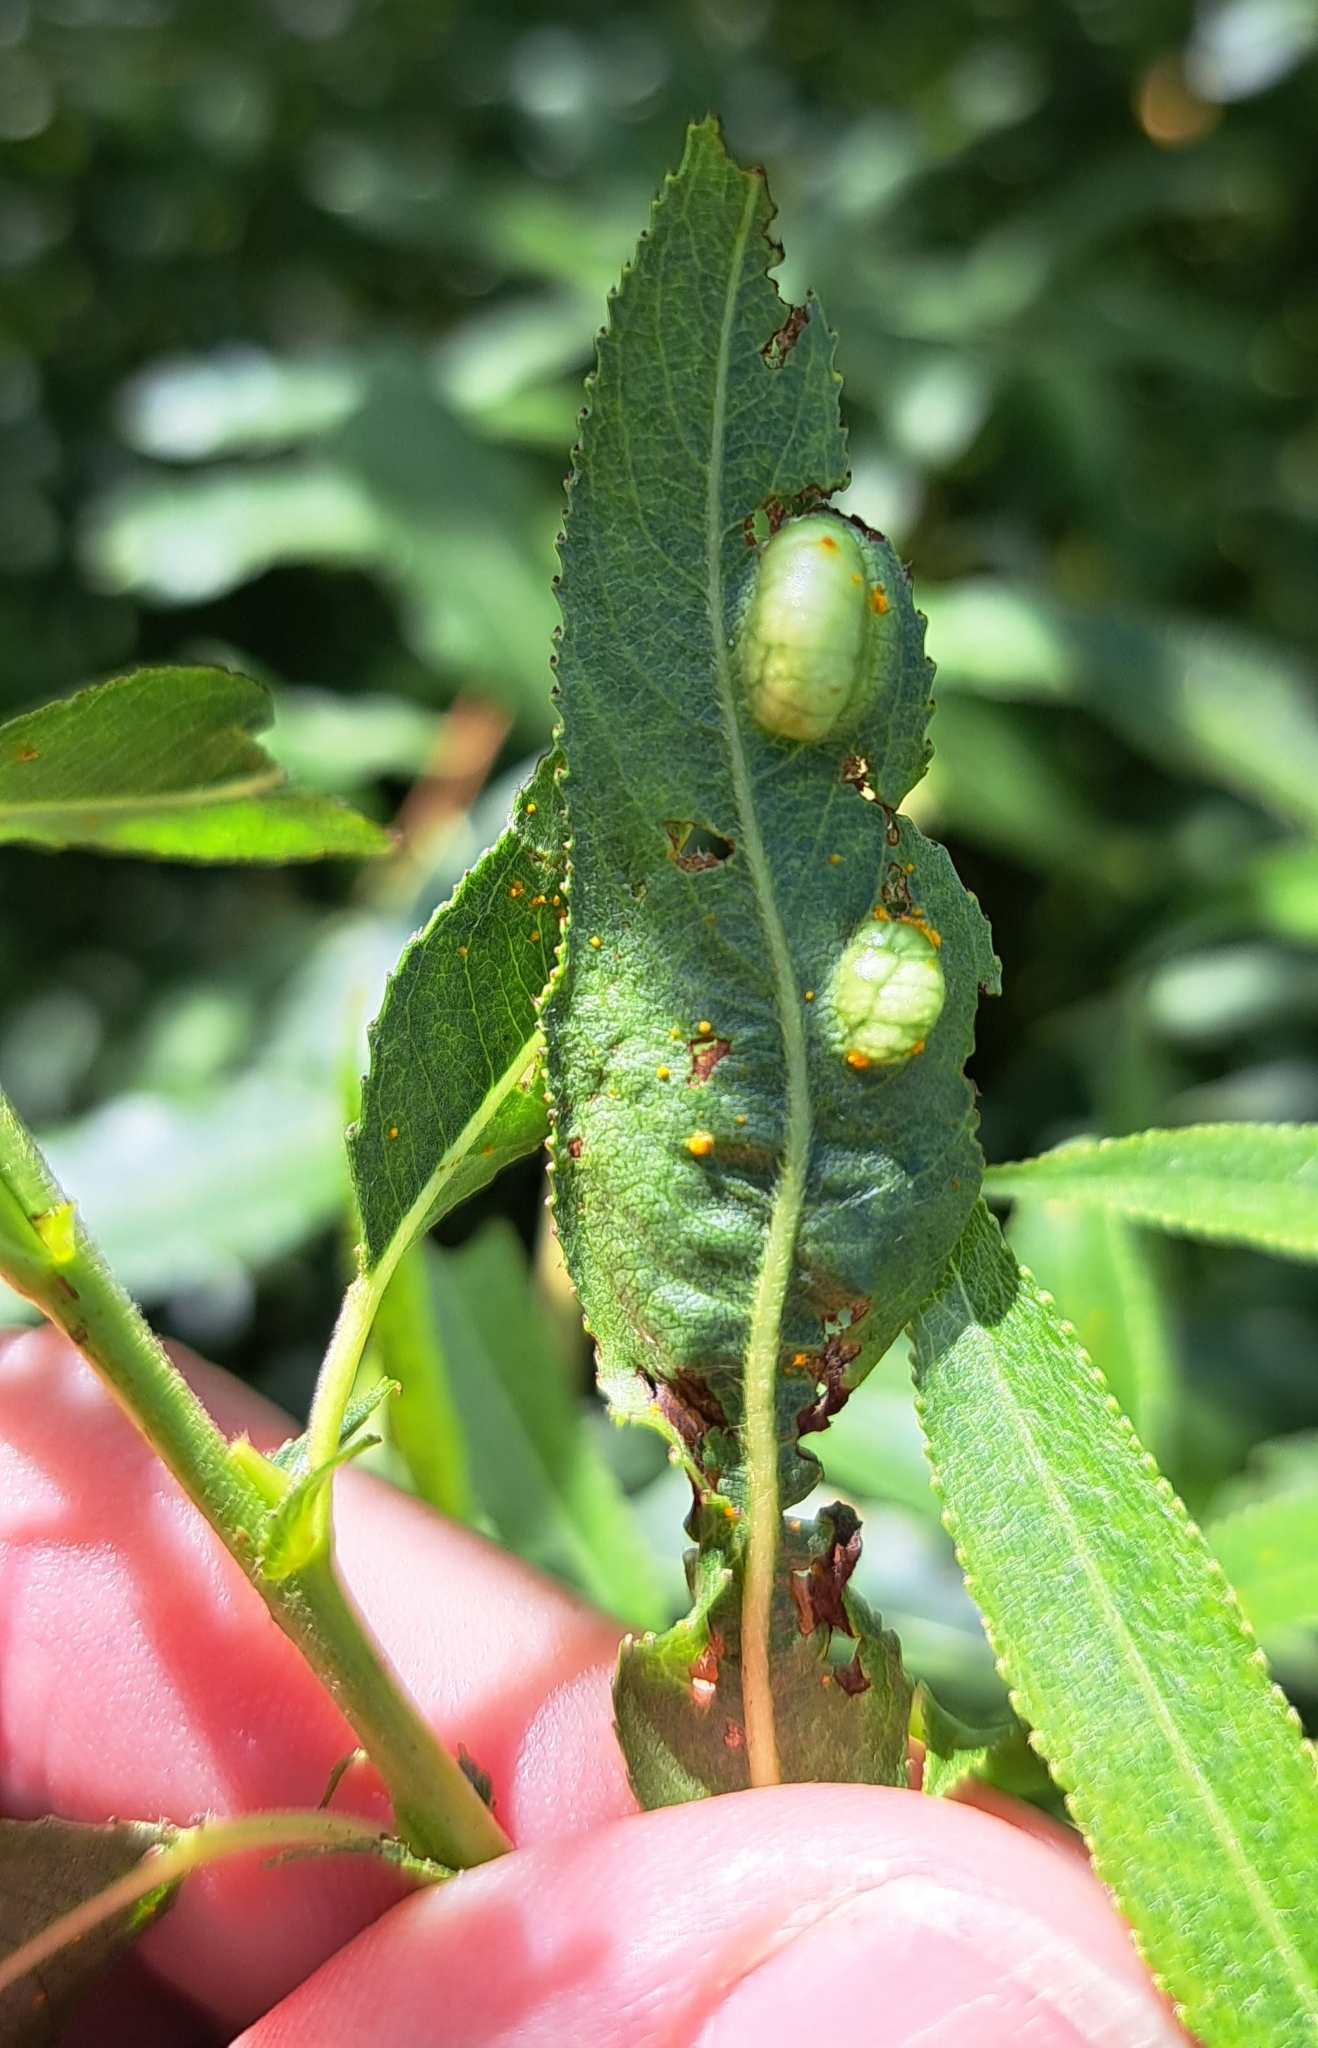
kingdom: Animalia
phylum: Arthropoda
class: Insecta
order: Hymenoptera
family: Tenthredinidae
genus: Pontania
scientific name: Pontania proxima
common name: Common sawfly
